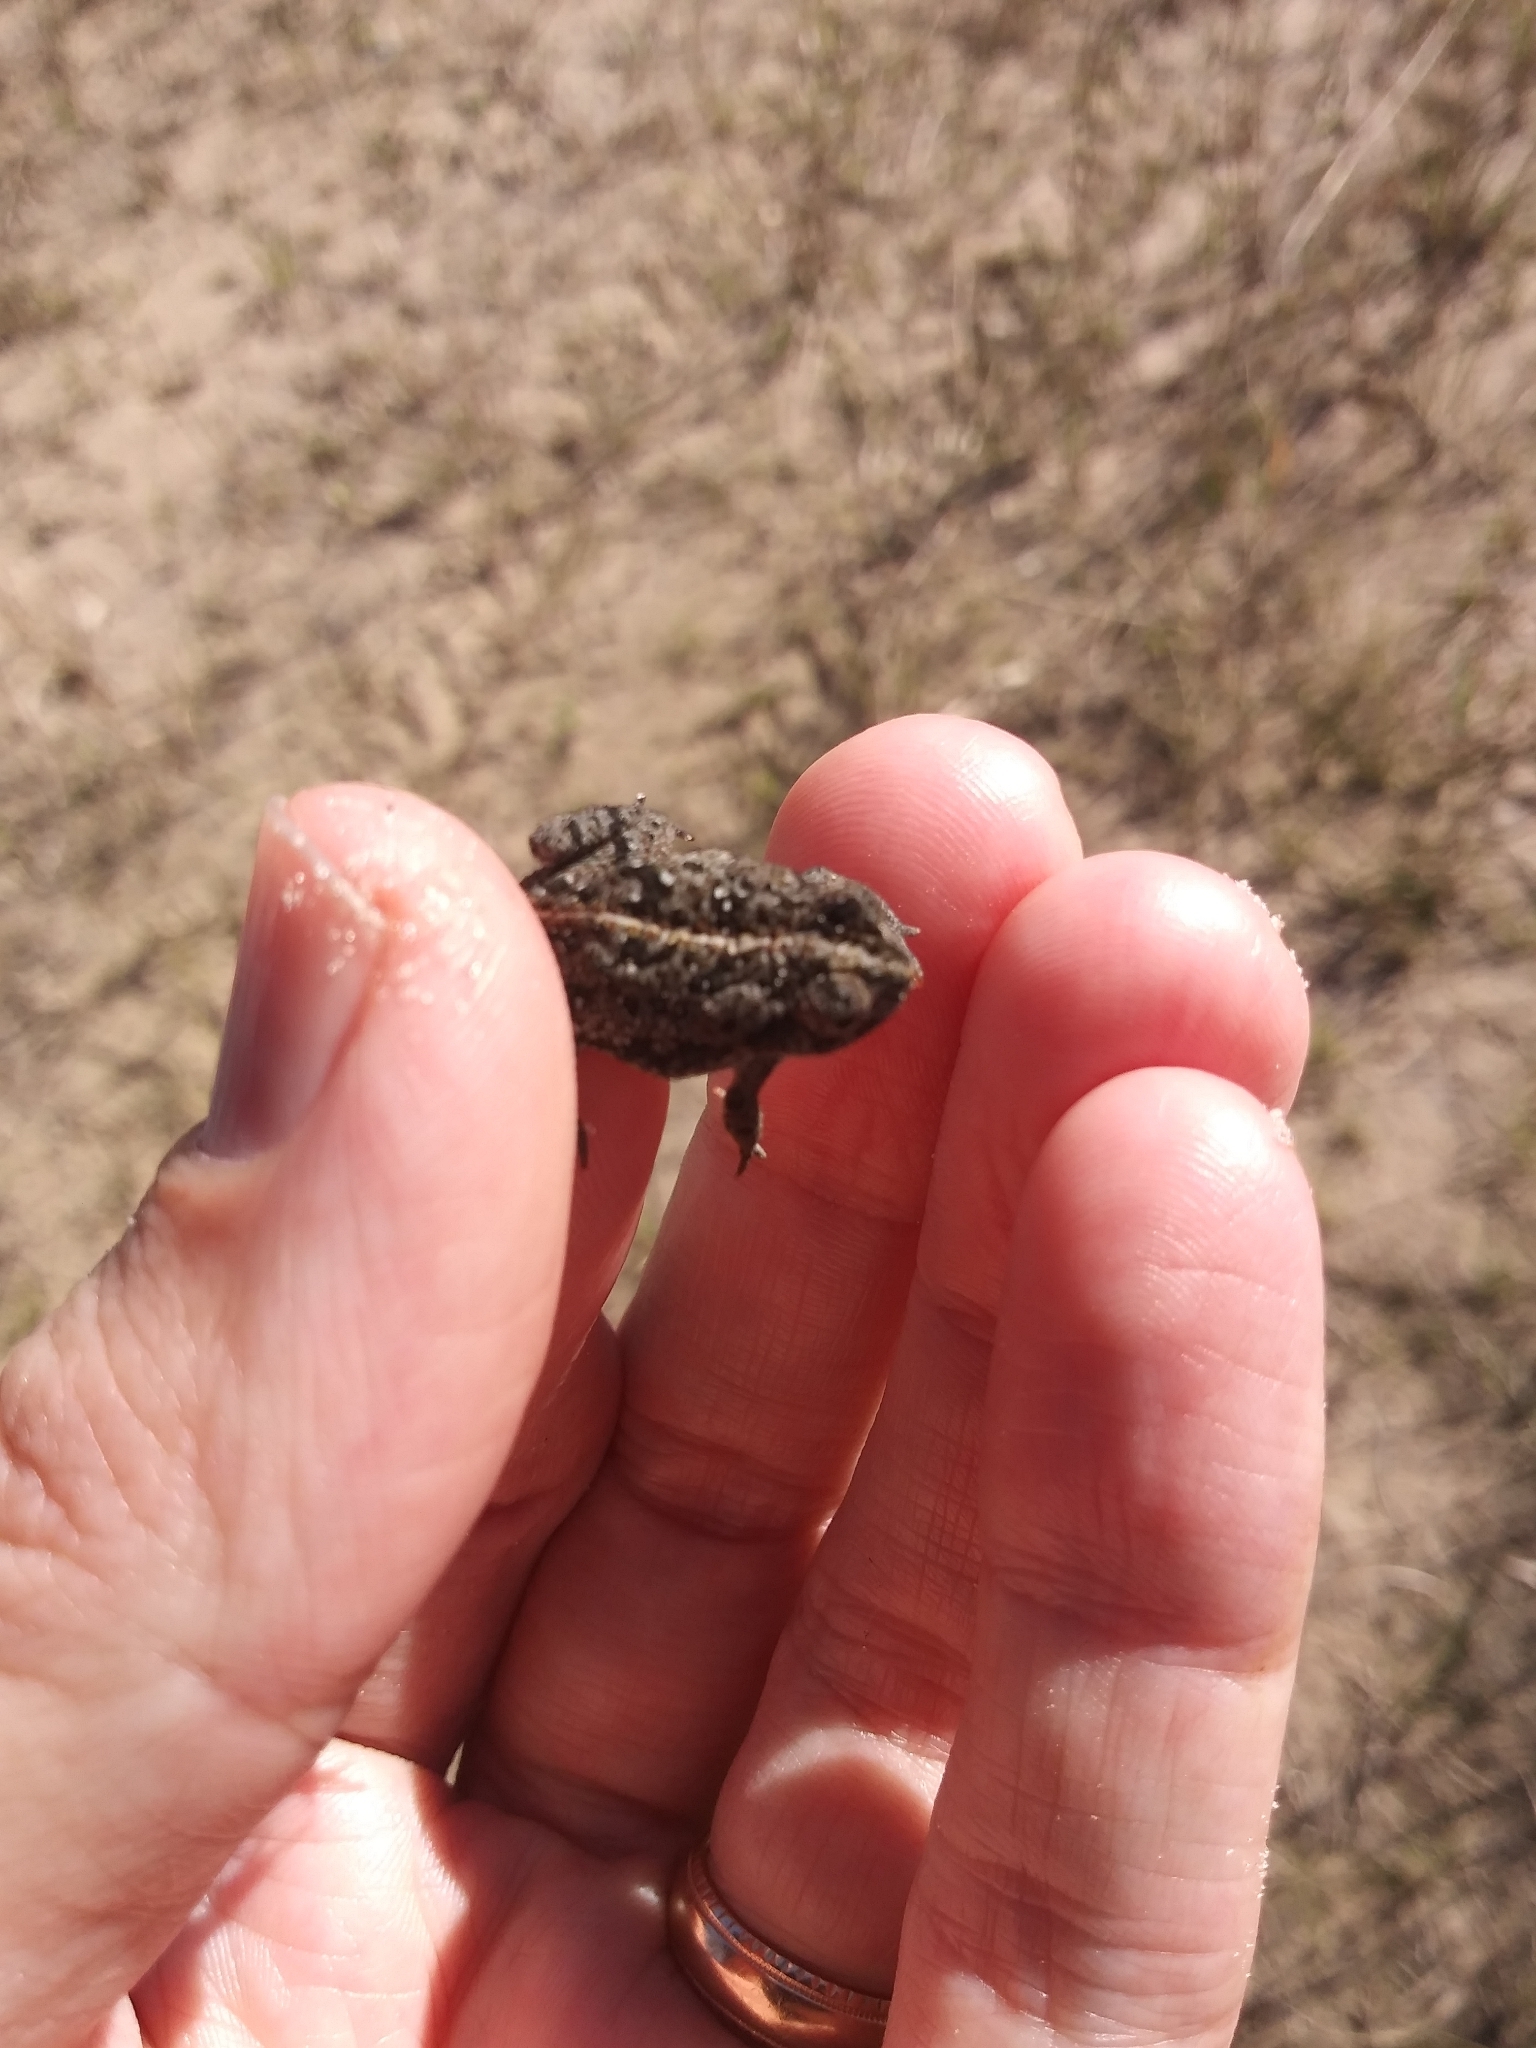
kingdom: Animalia
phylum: Chordata
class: Amphibia
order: Anura
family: Bufonidae
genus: Anaxyrus
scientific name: Anaxyrus quercicus
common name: Oak toad
